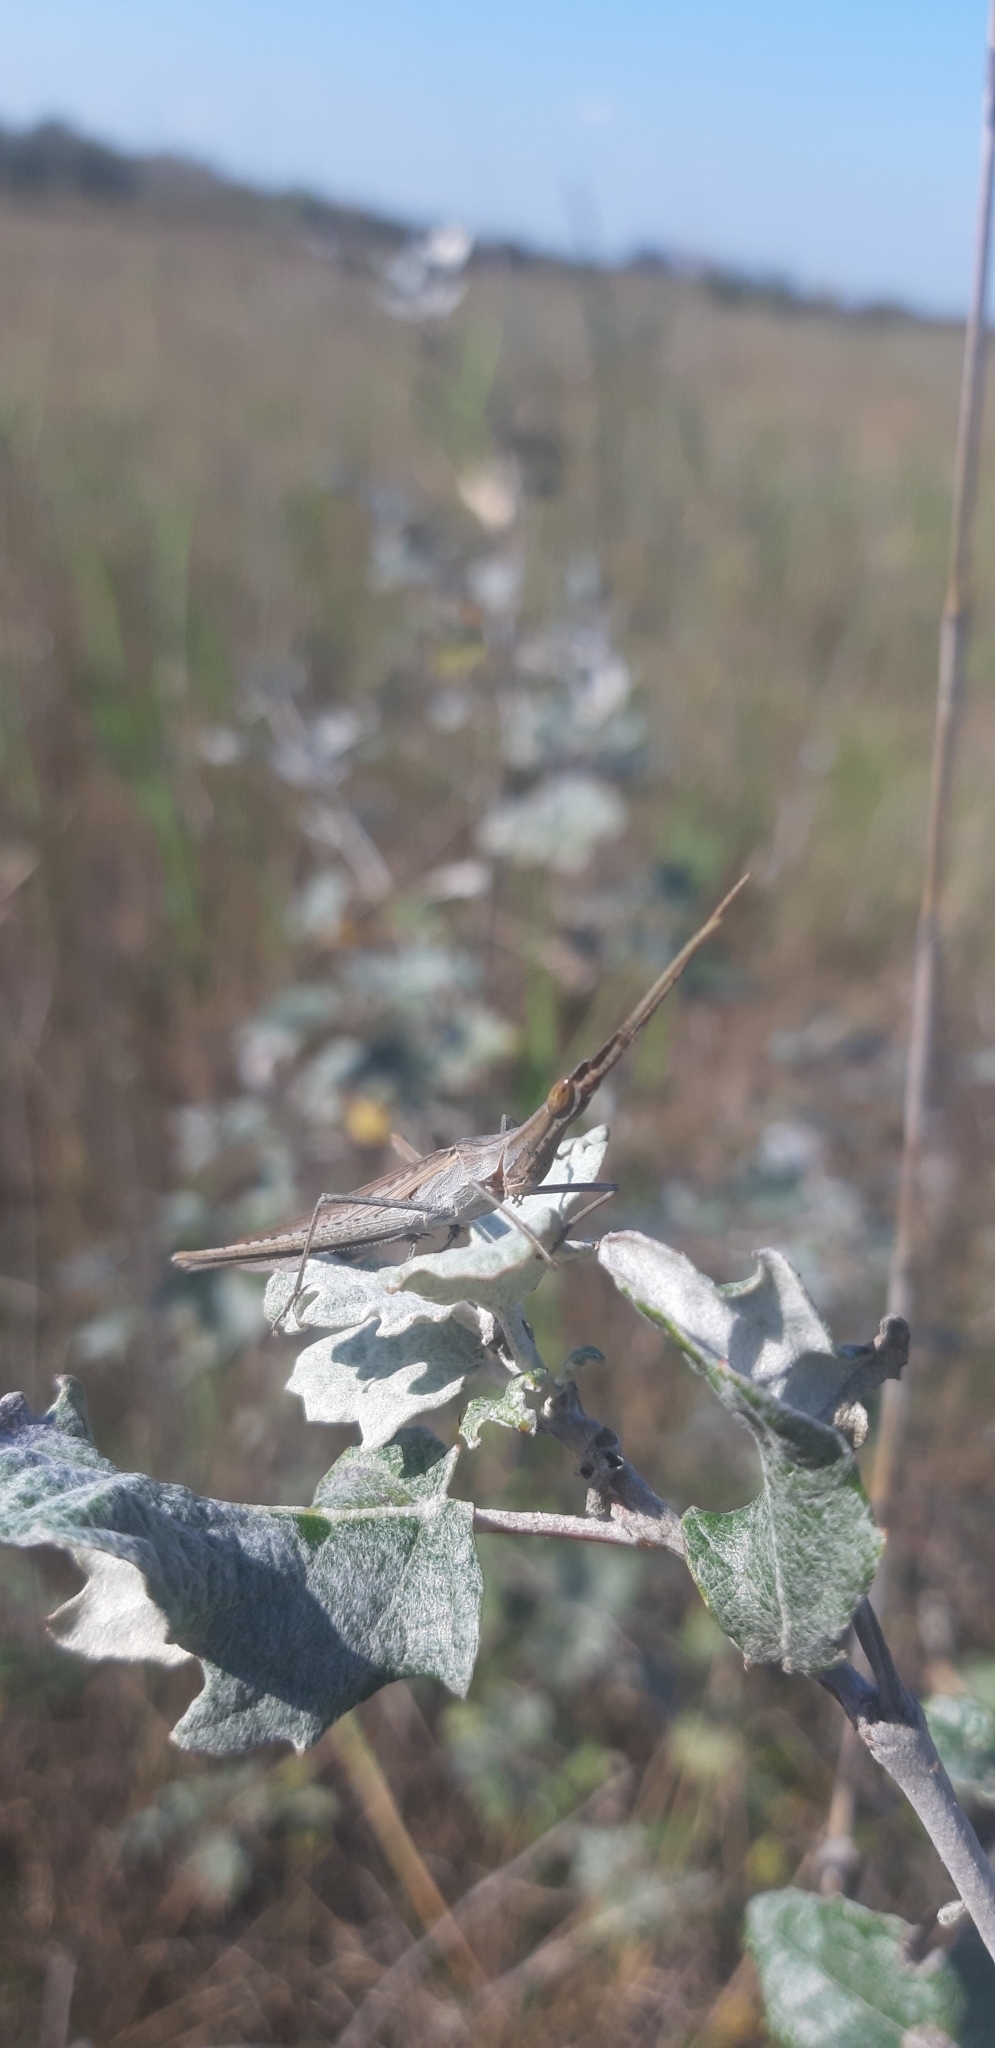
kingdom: Animalia
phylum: Arthropoda
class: Insecta
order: Orthoptera
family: Acrididae
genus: Acrida
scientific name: Acrida ungarica
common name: Common cone-headed grasshopper
